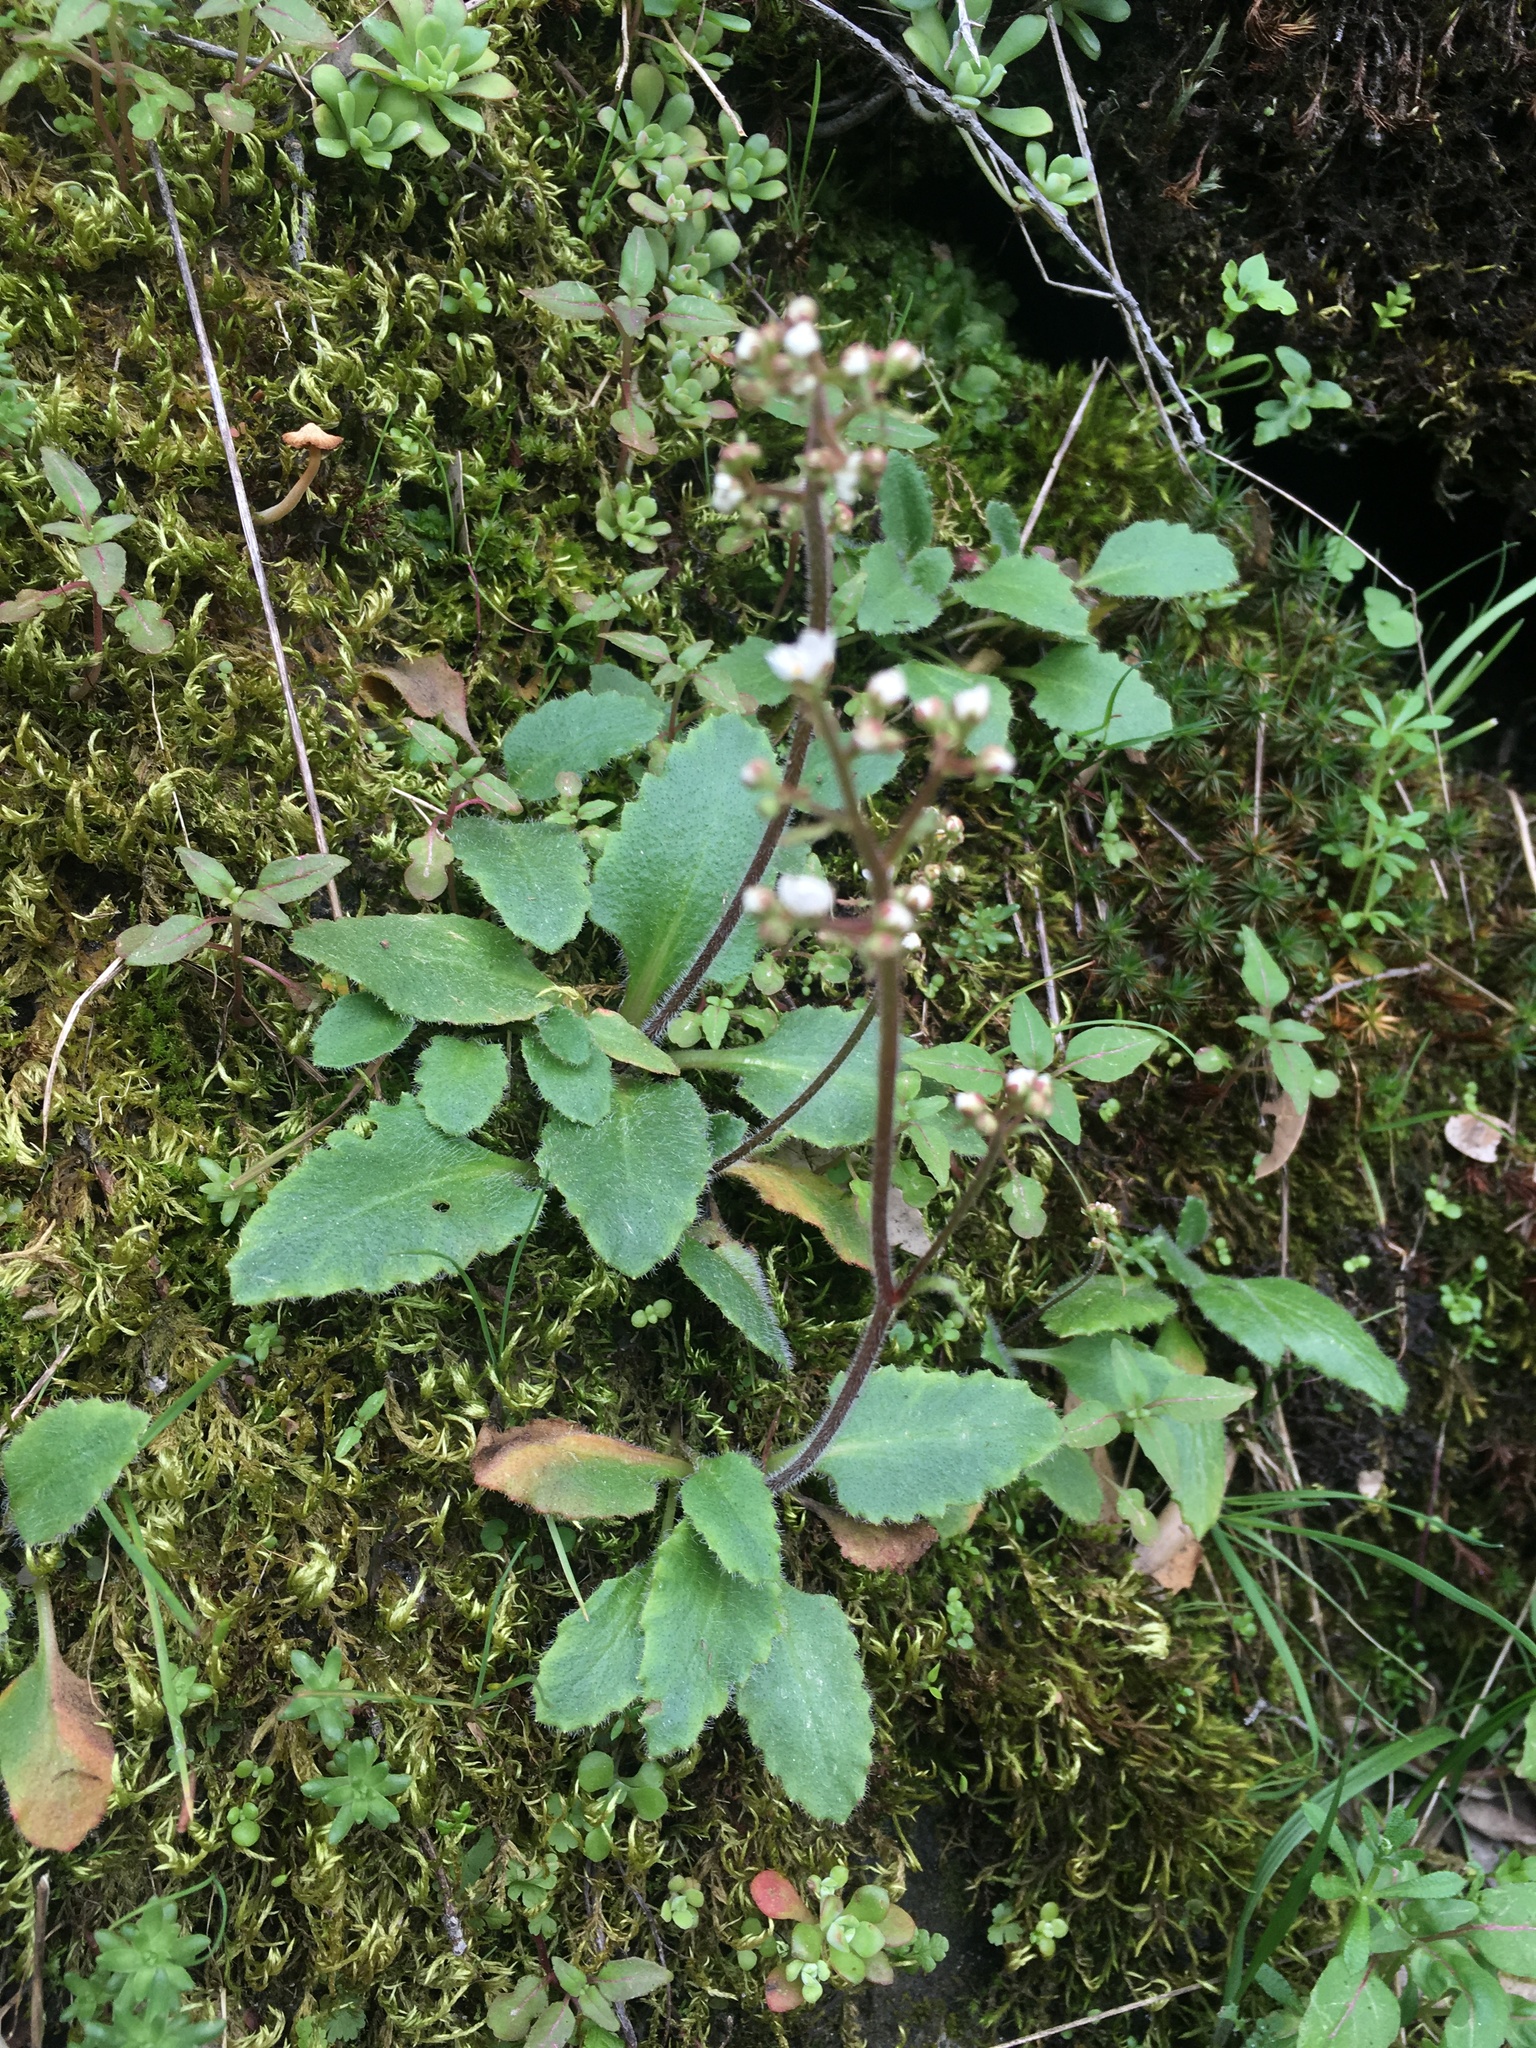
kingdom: Plantae
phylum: Tracheophyta
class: Magnoliopsida
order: Saxifragales
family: Saxifragaceae
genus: Micranthes
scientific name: Micranthes californica
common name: California saxifrage
